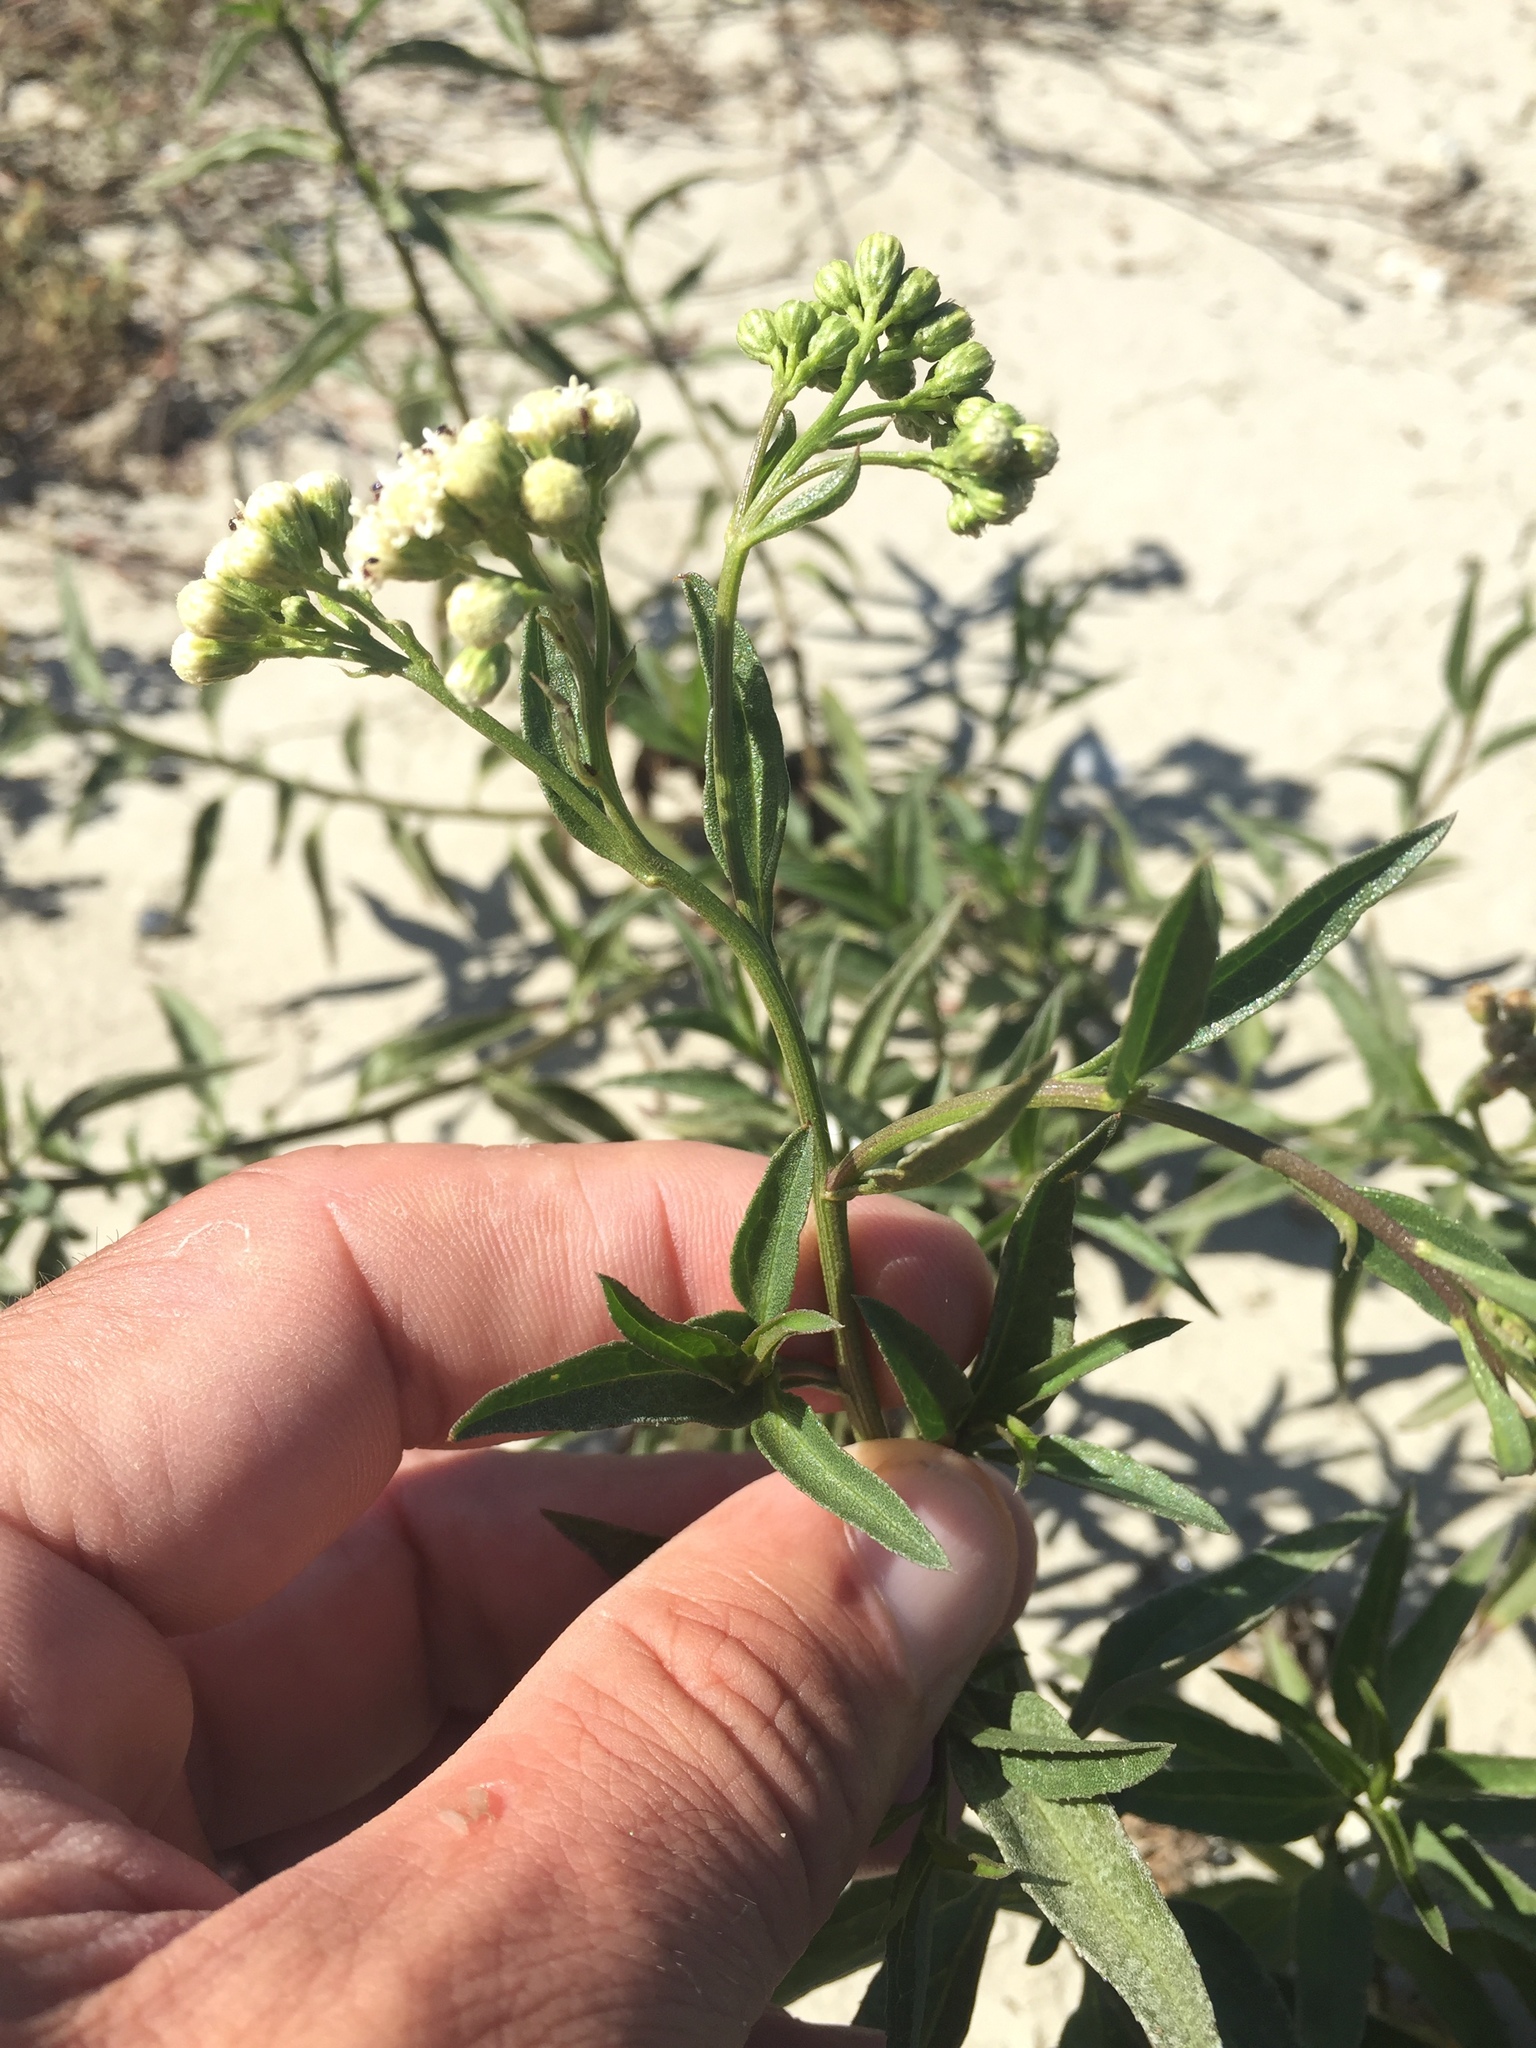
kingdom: Plantae
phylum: Tracheophyta
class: Magnoliopsida
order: Asterales
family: Asteraceae
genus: Baccharis
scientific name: Baccharis glutinosa
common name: Saltmarsh baccharis
